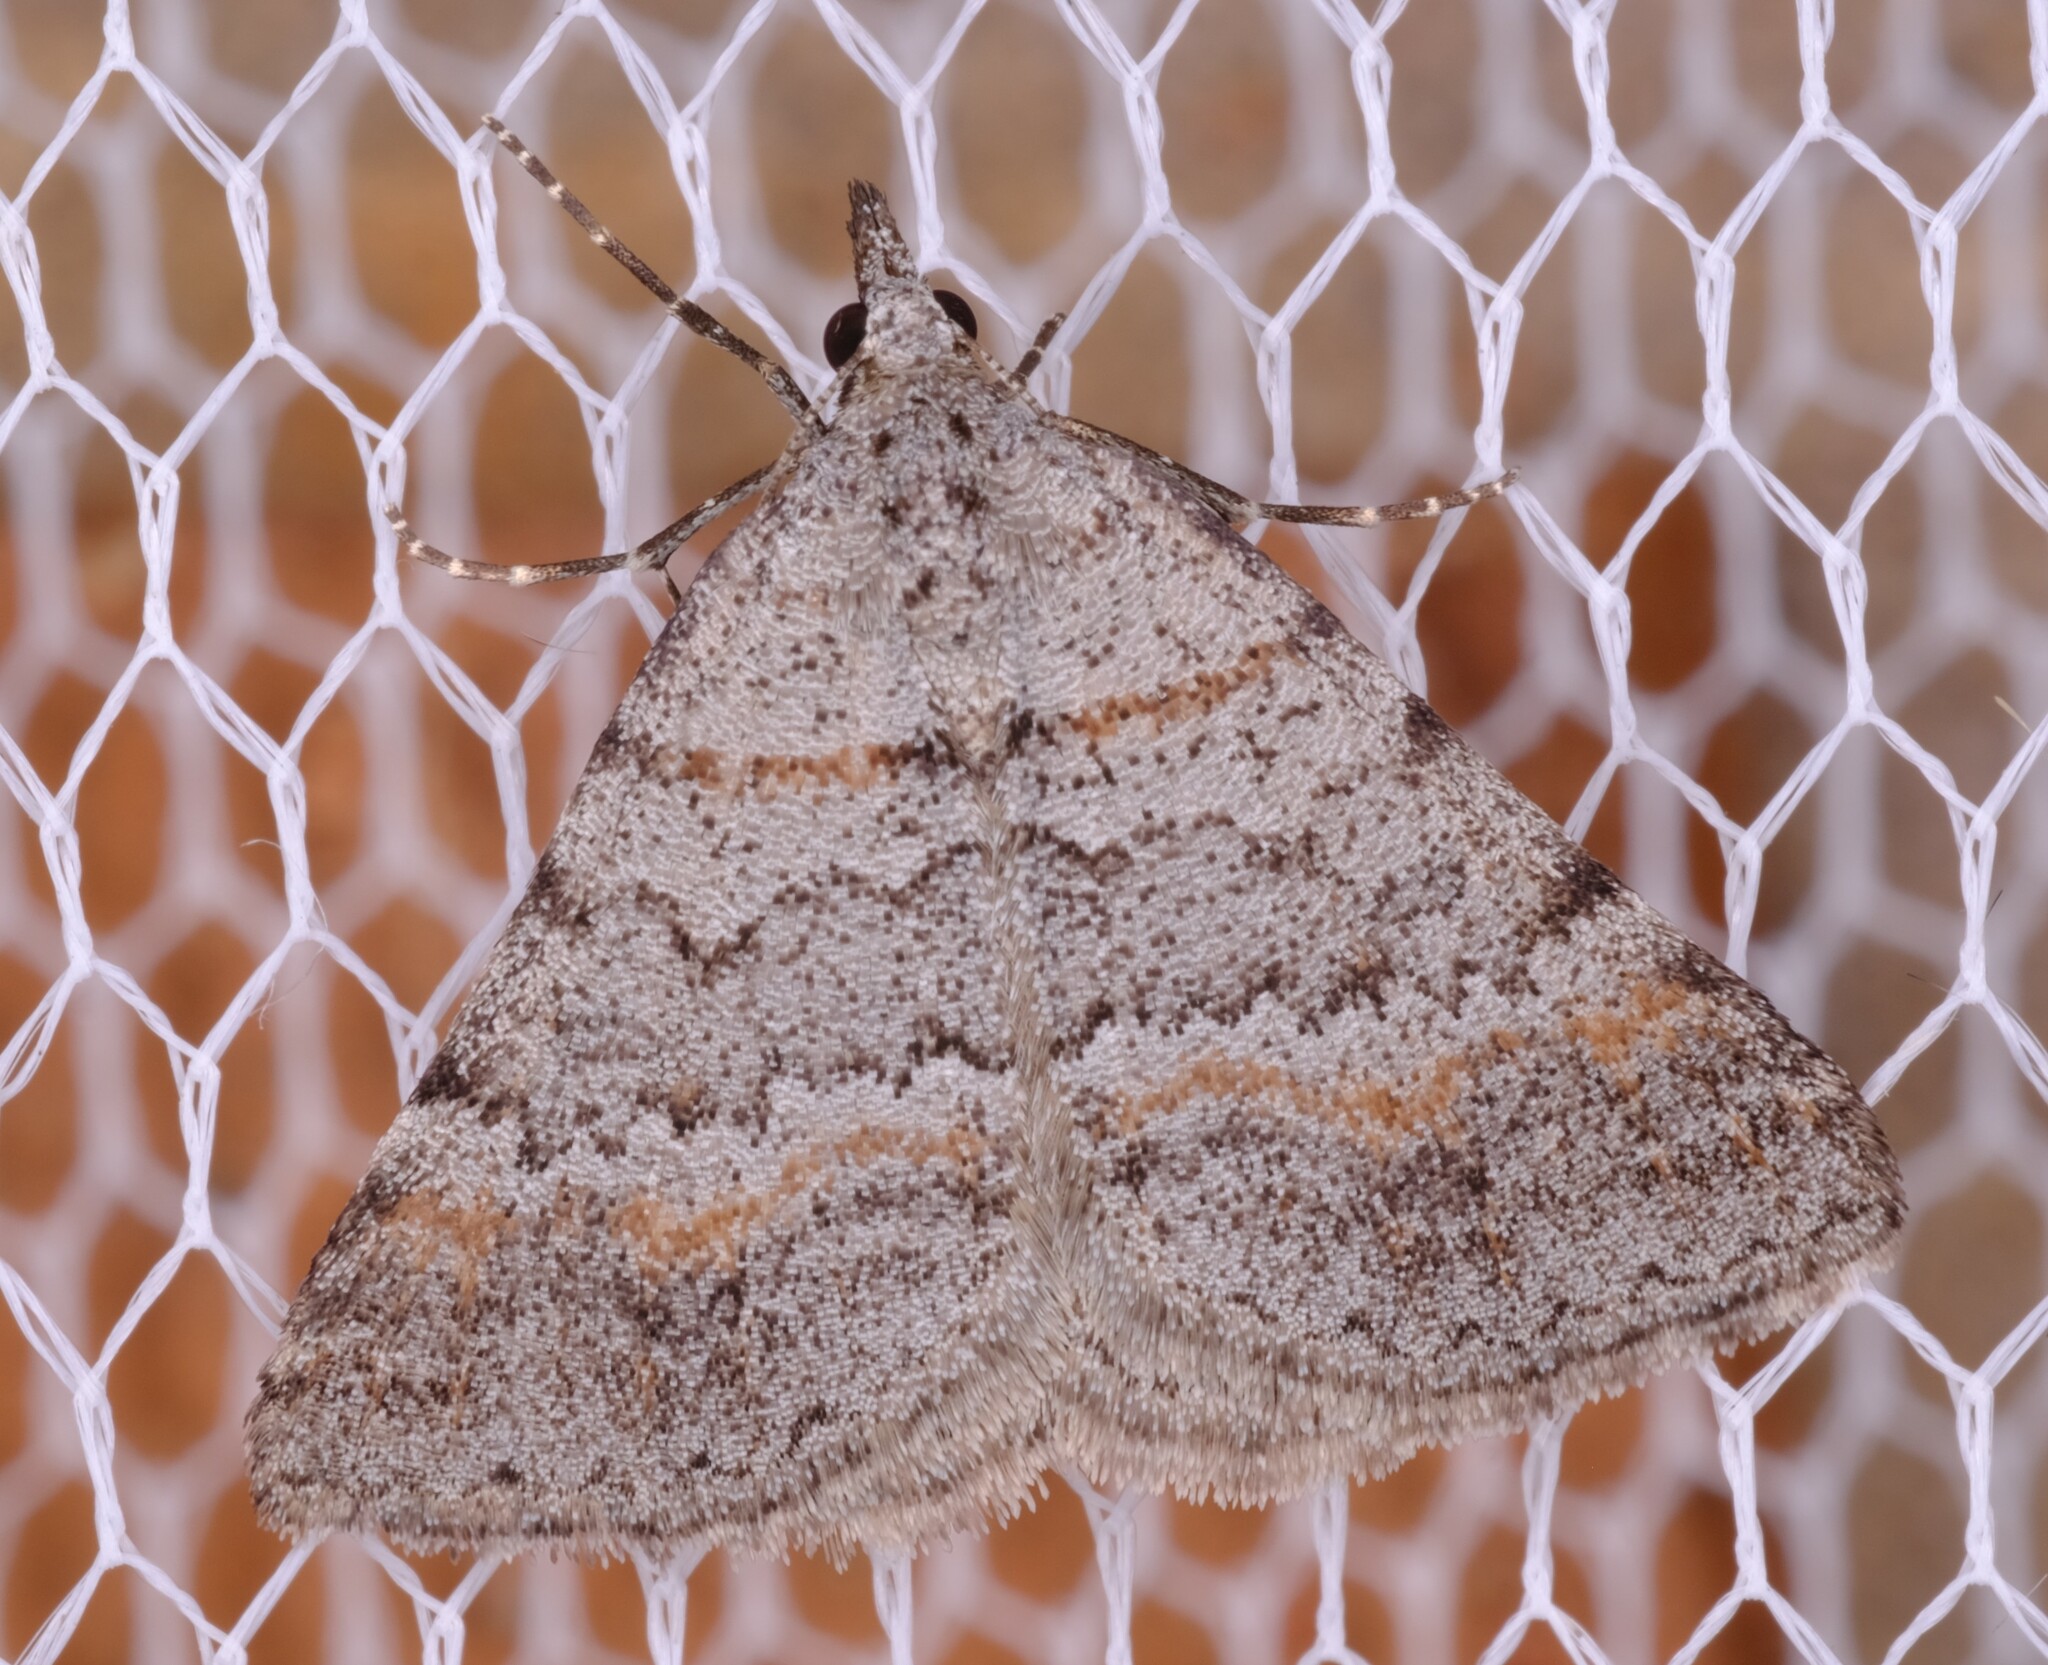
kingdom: Animalia
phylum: Arthropoda
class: Insecta
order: Lepidoptera
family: Geometridae
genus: Dichromodes
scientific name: Dichromodes obtusata
